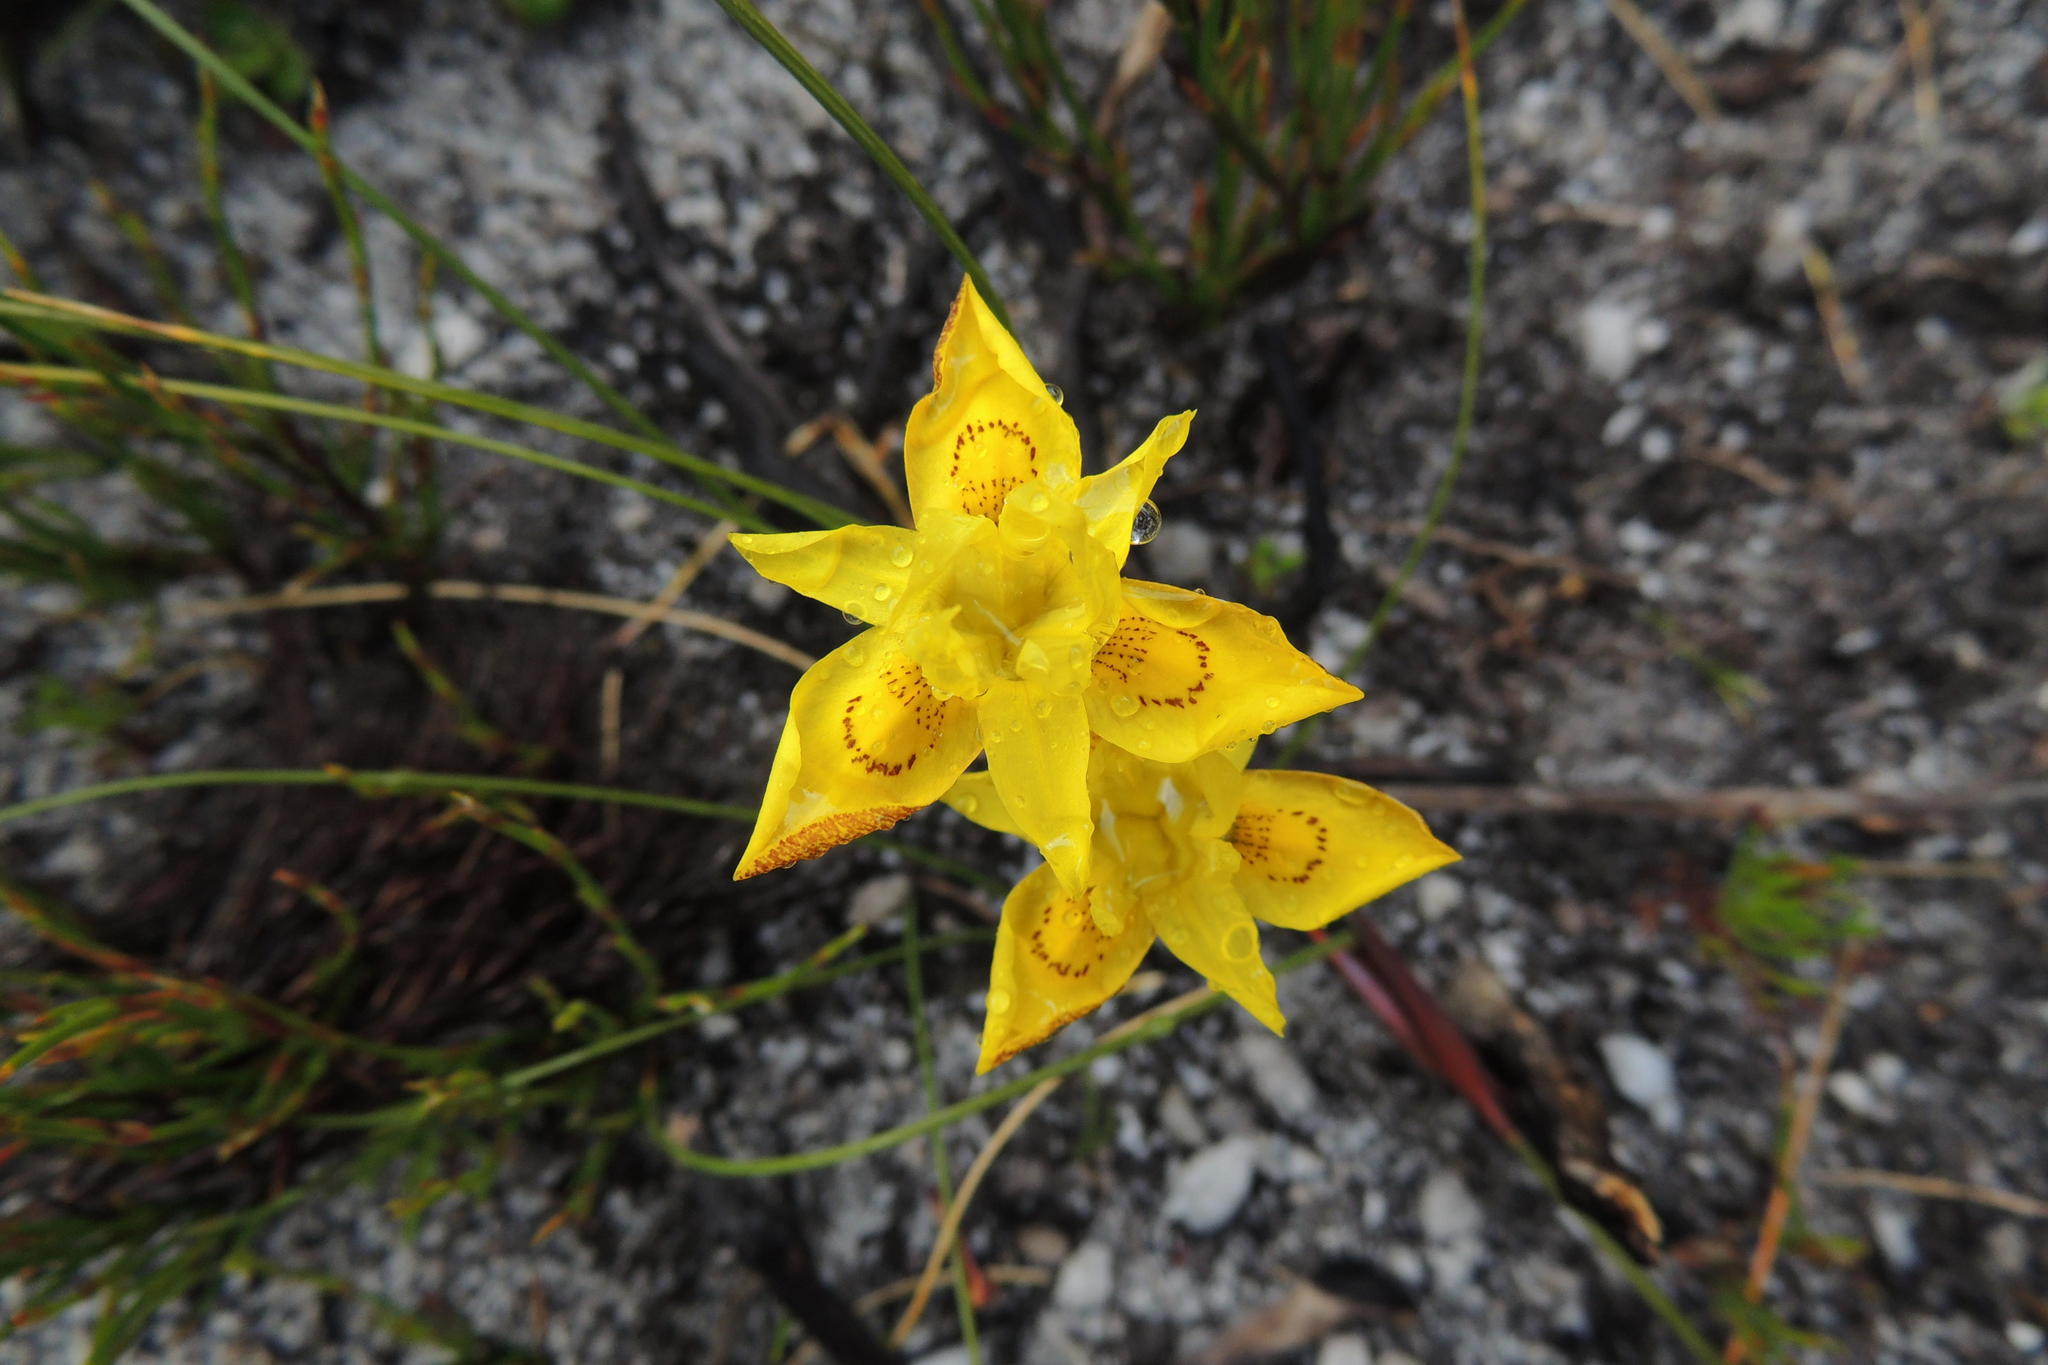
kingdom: Plantae
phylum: Tracheophyta
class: Liliopsida
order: Asparagales
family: Iridaceae
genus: Moraea
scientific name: Moraea vallisavium
